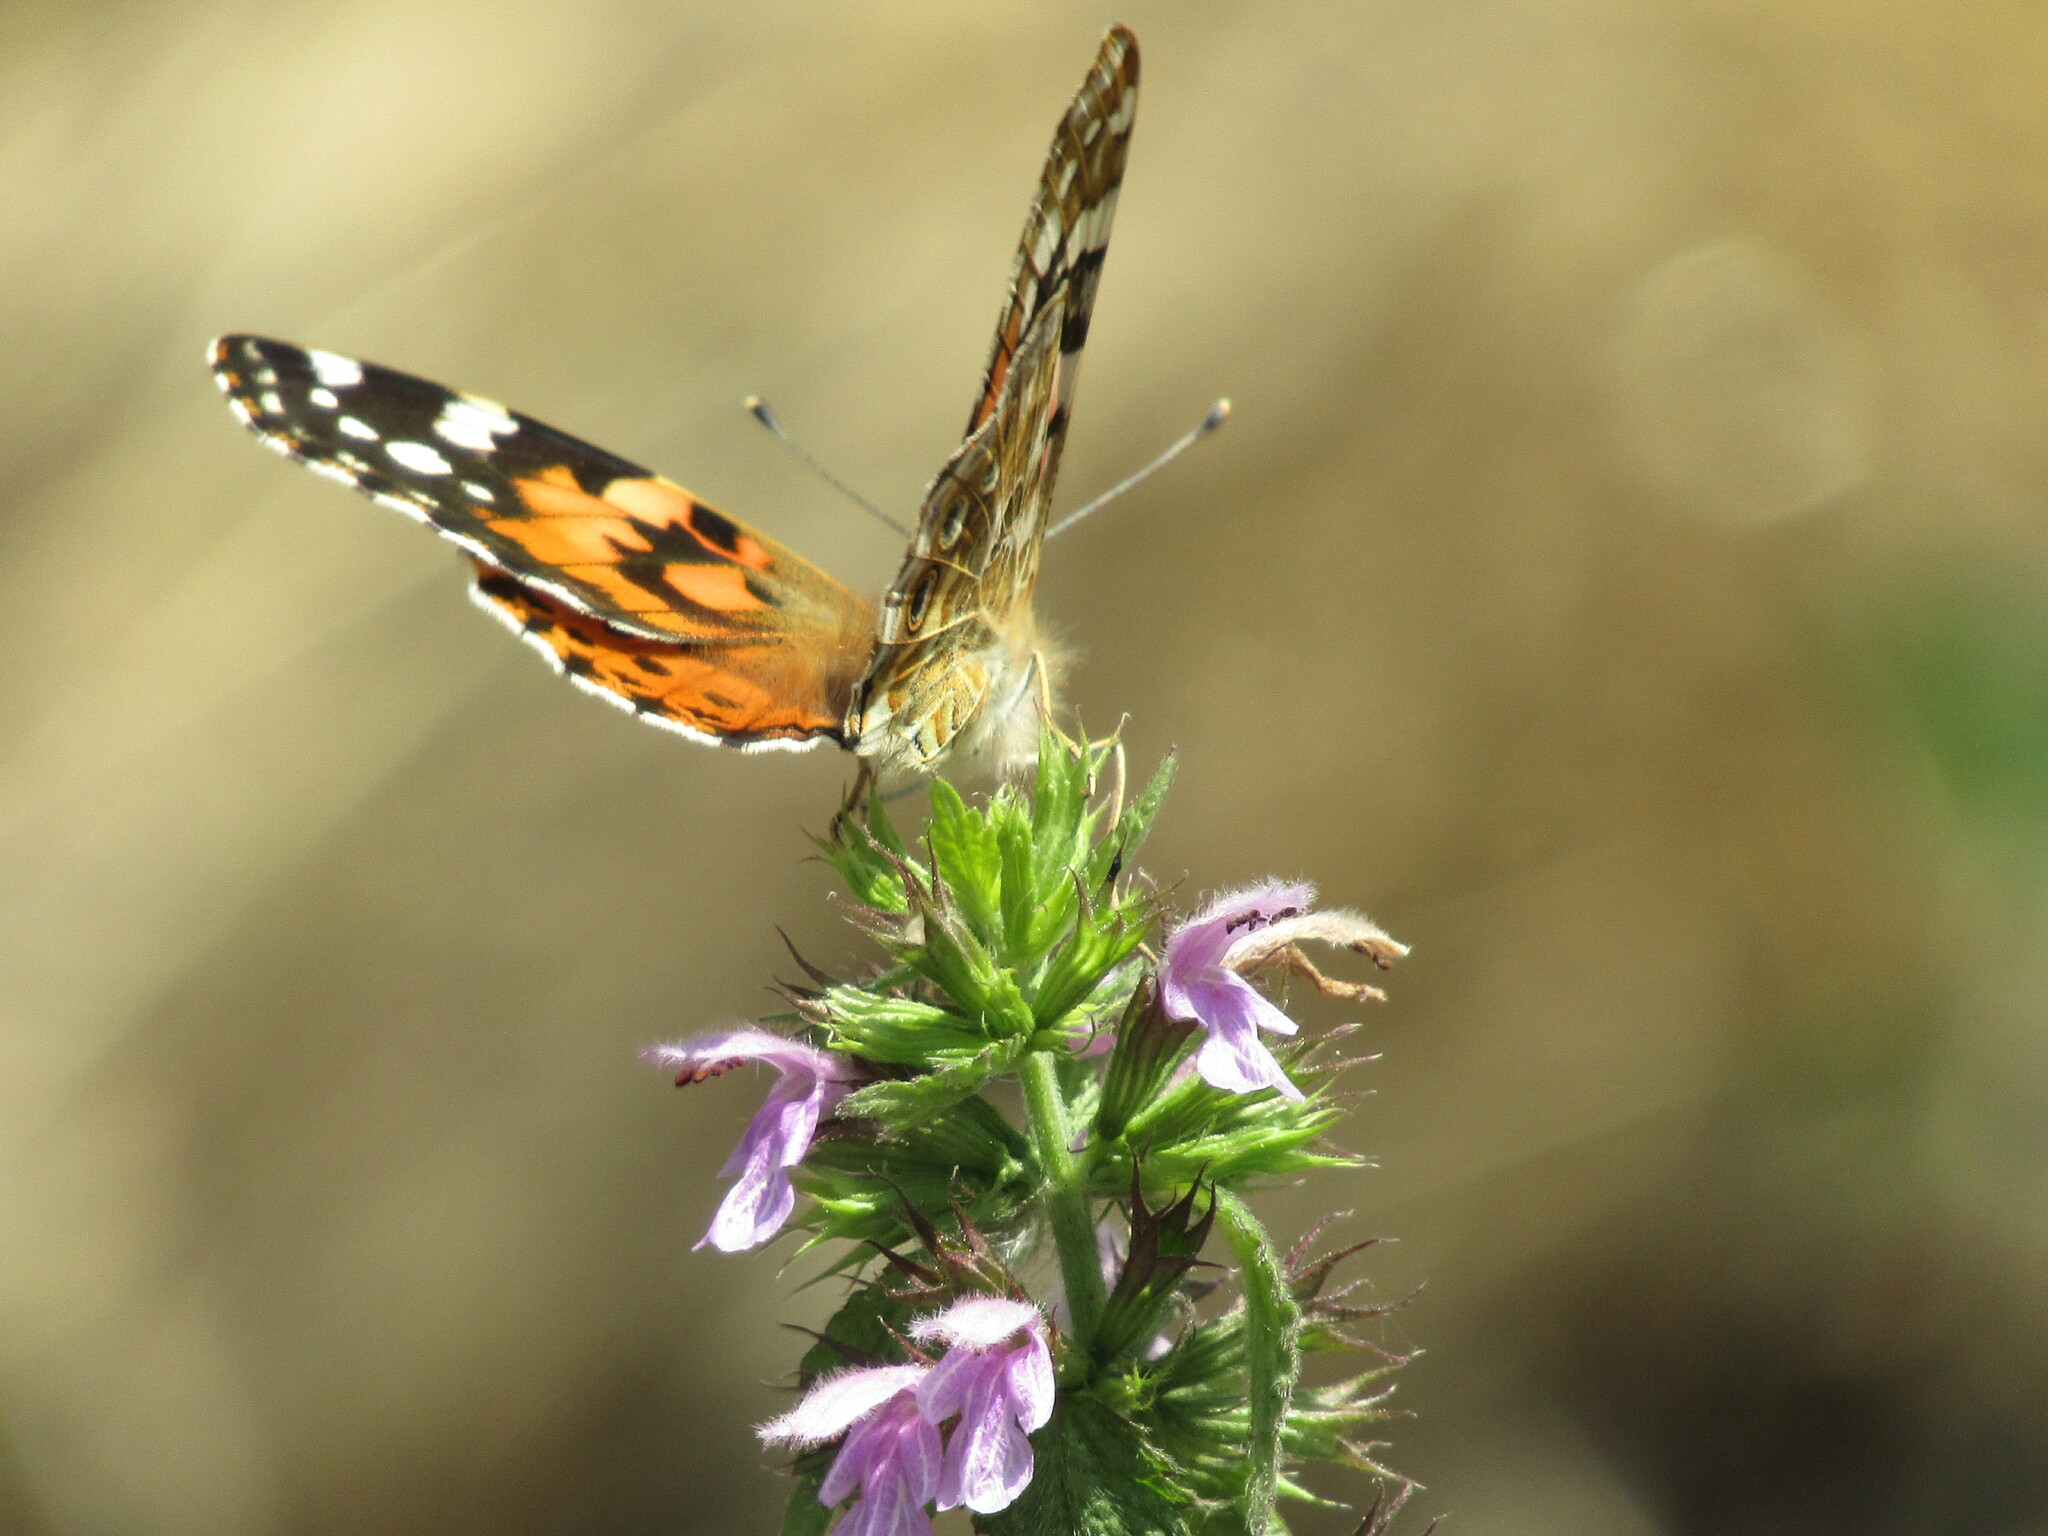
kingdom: Animalia
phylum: Arthropoda
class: Insecta
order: Lepidoptera
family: Nymphalidae
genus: Vanessa
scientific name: Vanessa cardui
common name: Painted lady
